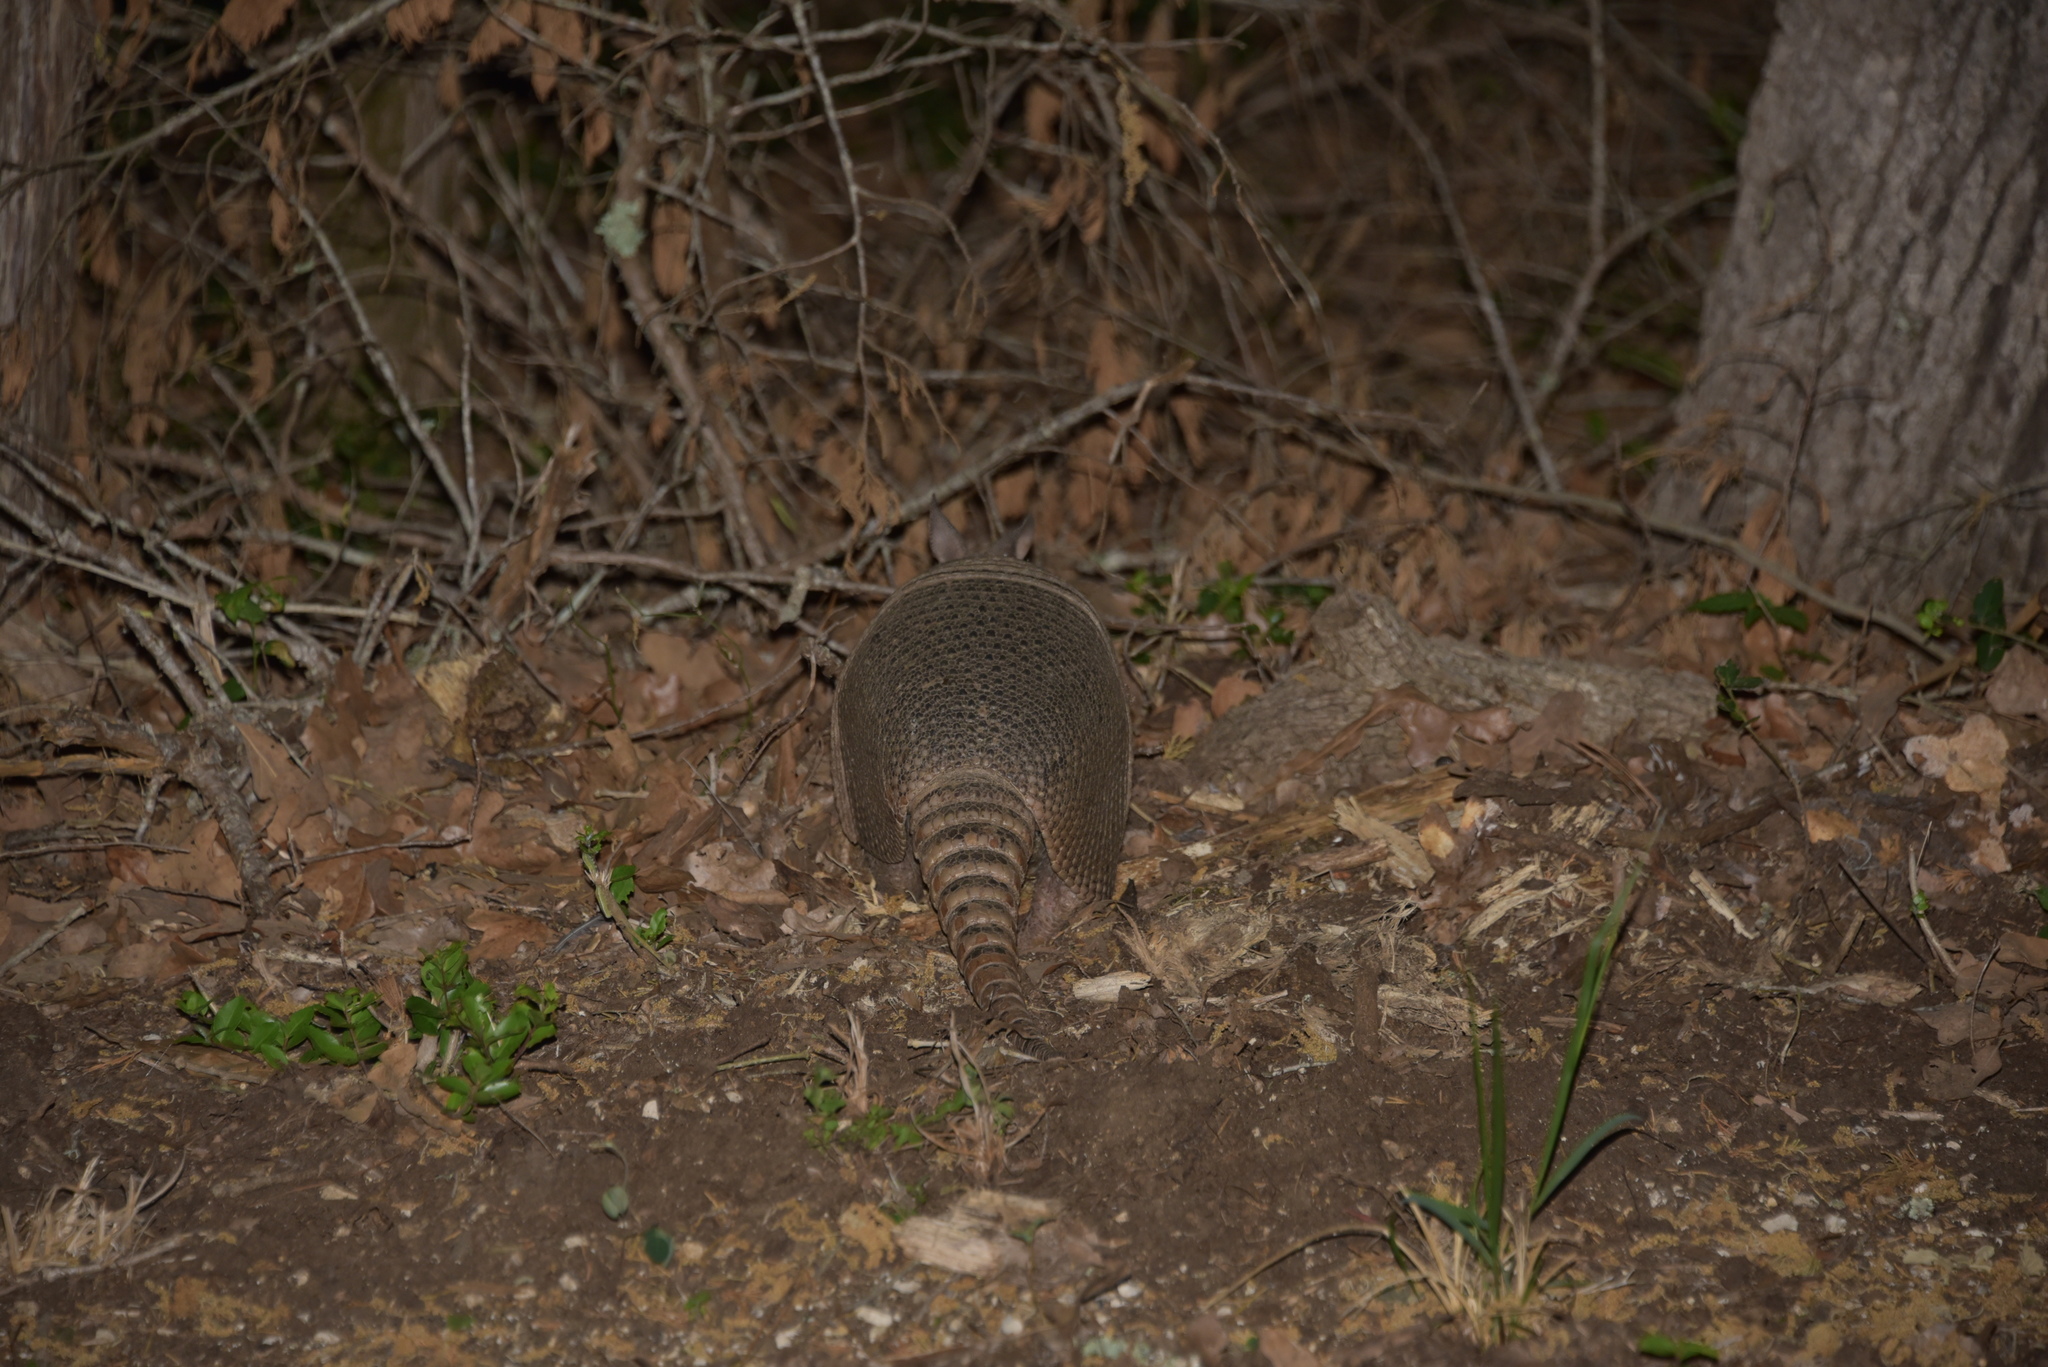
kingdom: Animalia
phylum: Chordata
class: Mammalia
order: Cingulata
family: Dasypodidae
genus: Dasypus
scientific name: Dasypus novemcinctus
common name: Nine-banded armadillo
